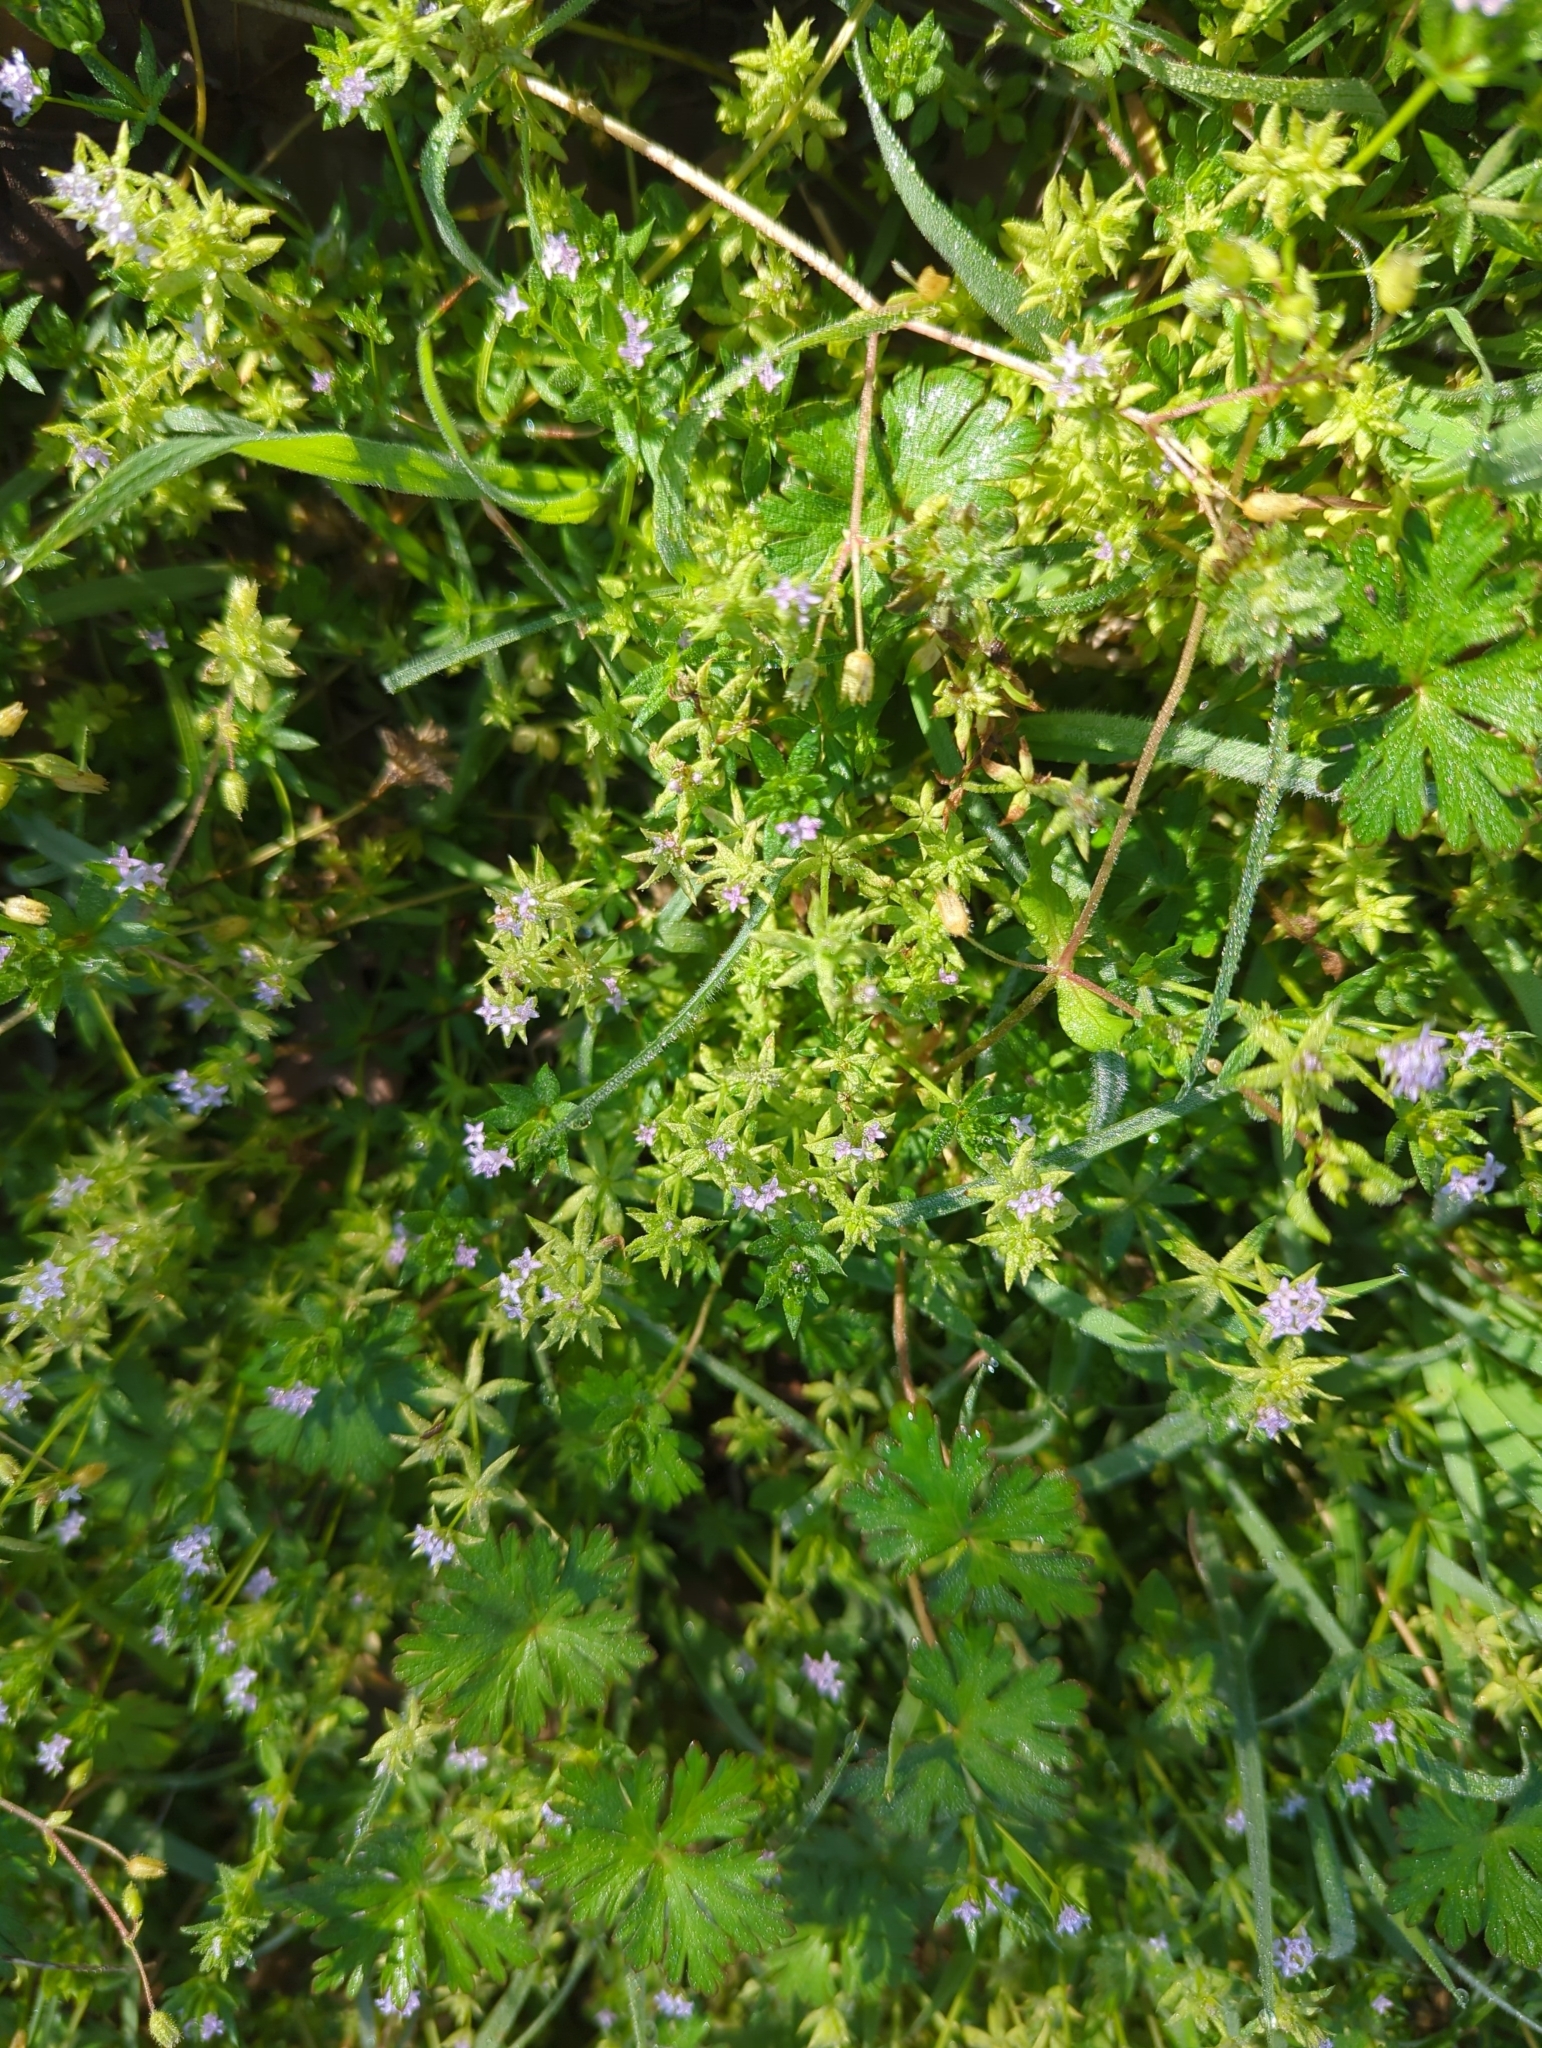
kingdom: Plantae
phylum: Tracheophyta
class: Magnoliopsida
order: Gentianales
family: Rubiaceae
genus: Sherardia
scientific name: Sherardia arvensis
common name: Field madder
